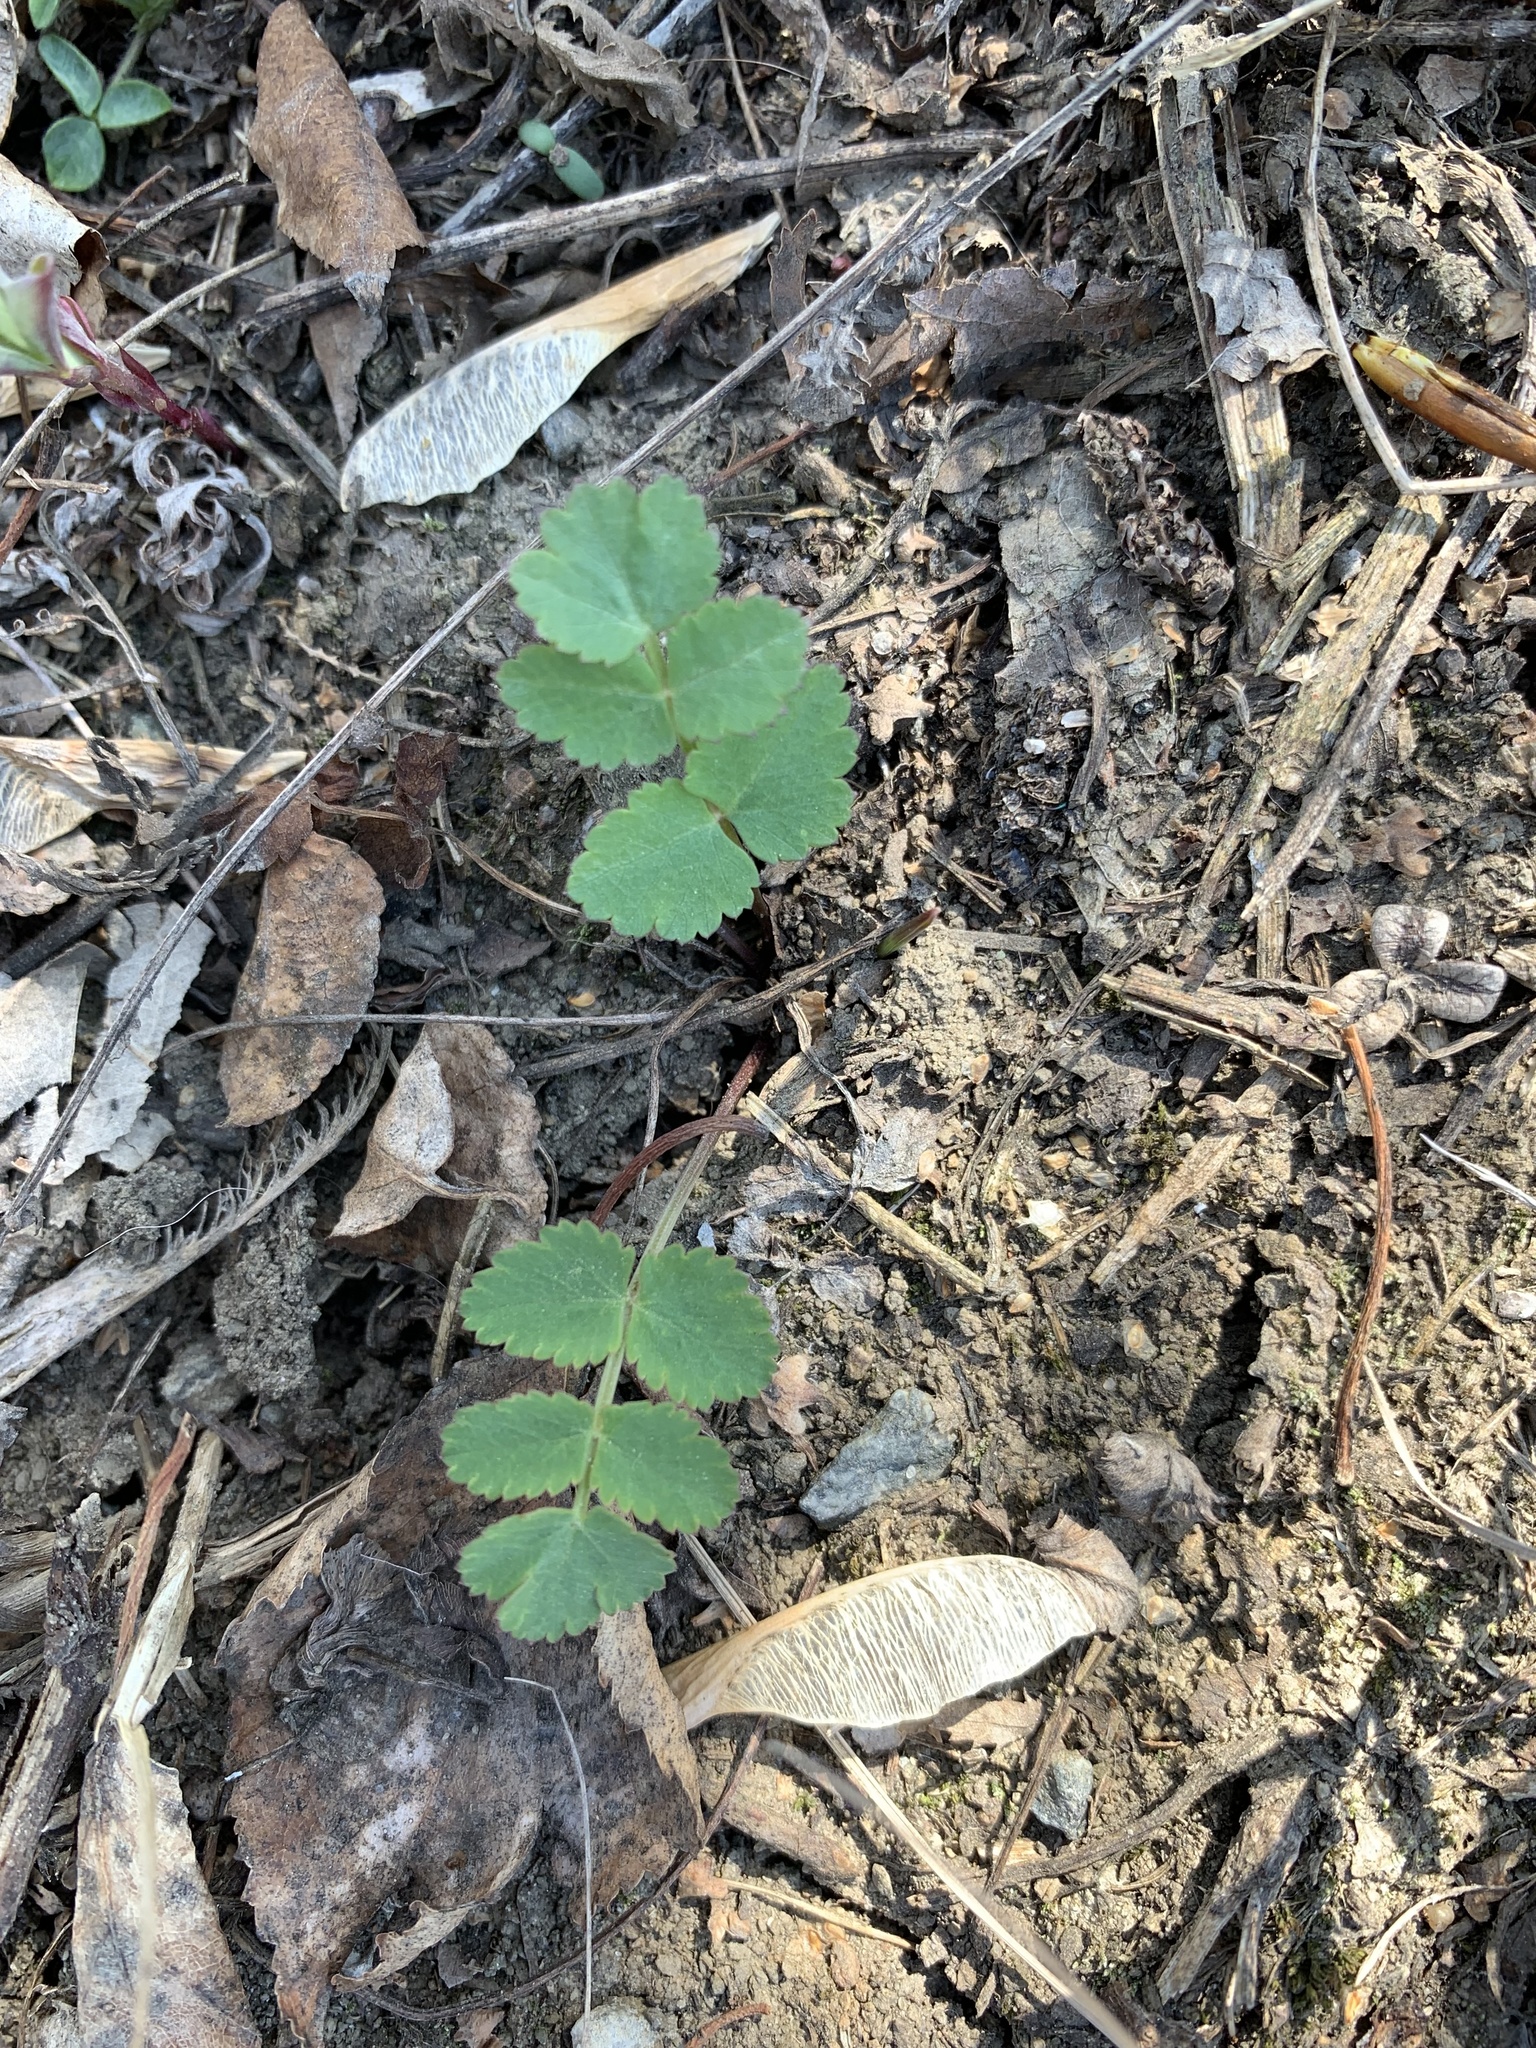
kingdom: Plantae
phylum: Tracheophyta
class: Magnoliopsida
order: Apiales
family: Apiaceae
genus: Pimpinella
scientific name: Pimpinella saxifraga
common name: Burnet-saxifrage
